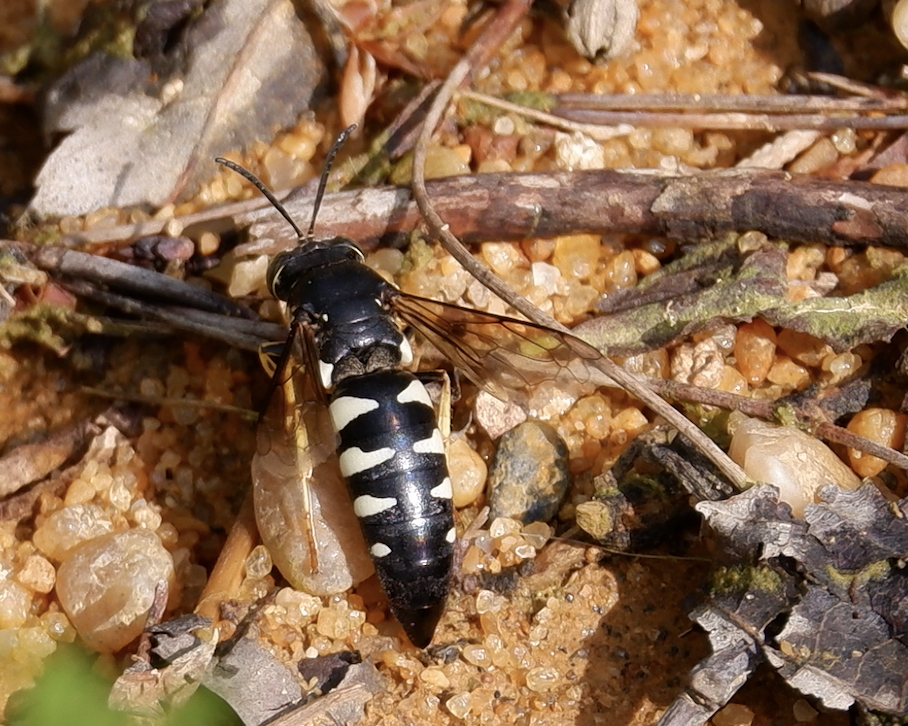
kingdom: Animalia
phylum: Arthropoda
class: Insecta
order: Hymenoptera
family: Crabronidae
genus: Bicyrtes
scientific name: Bicyrtes quadrifasciatus
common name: Four-banded stink bug hunter wasp
